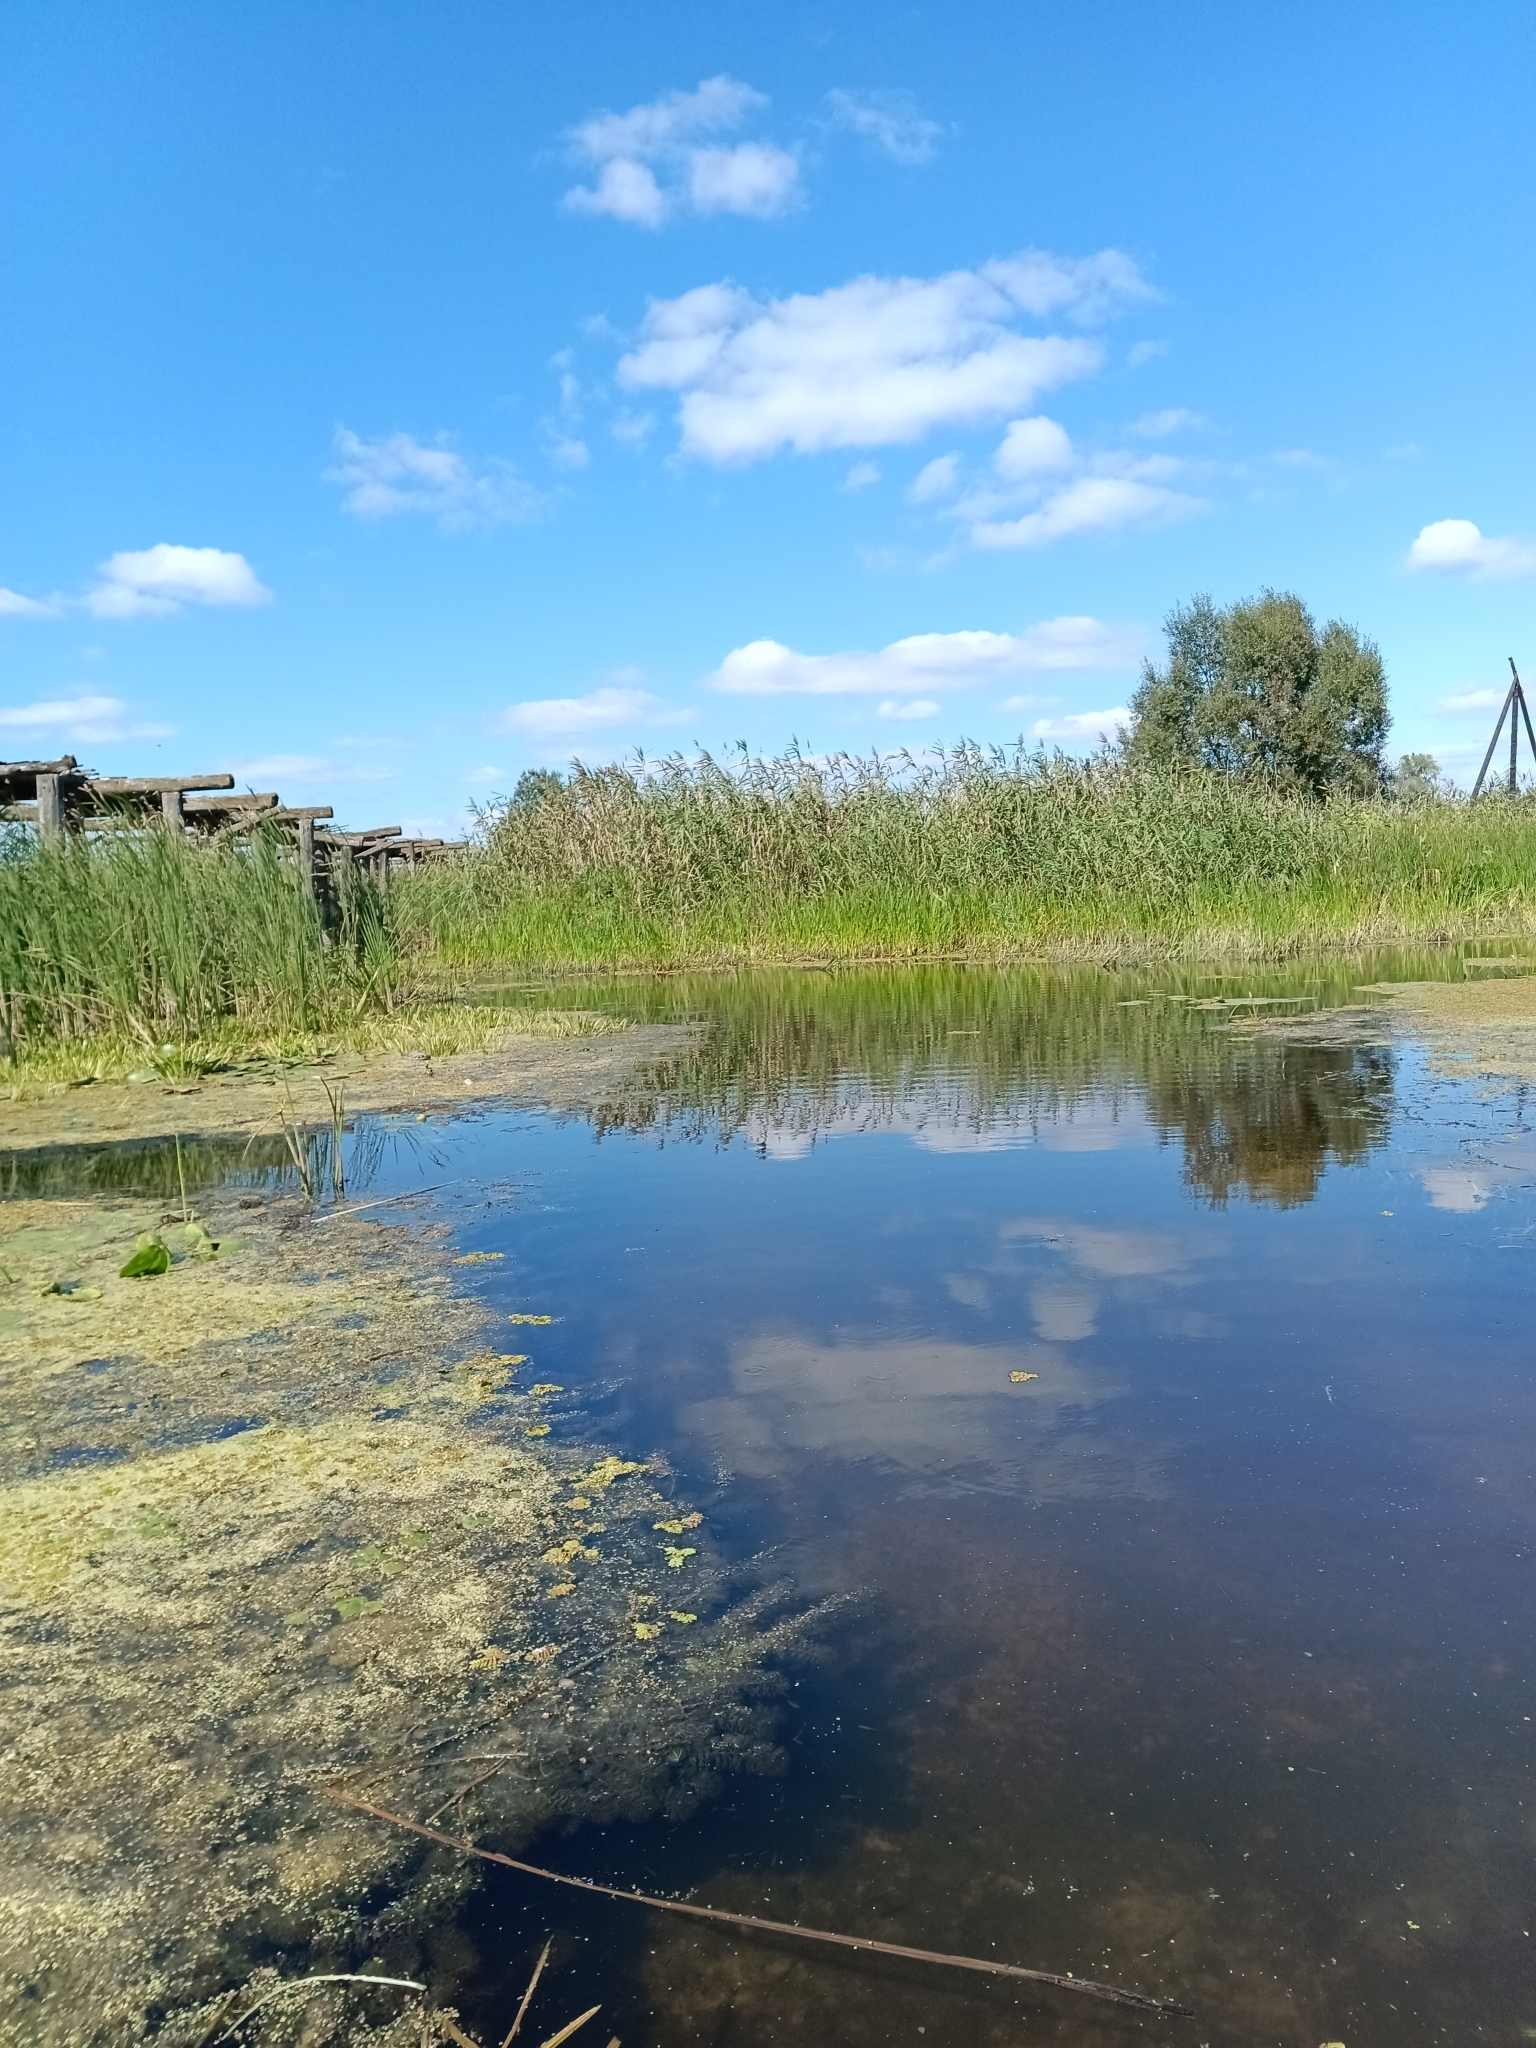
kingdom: Plantae
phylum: Tracheophyta
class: Liliopsida
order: Poales
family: Poaceae
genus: Phragmites
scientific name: Phragmites australis
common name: Common reed
